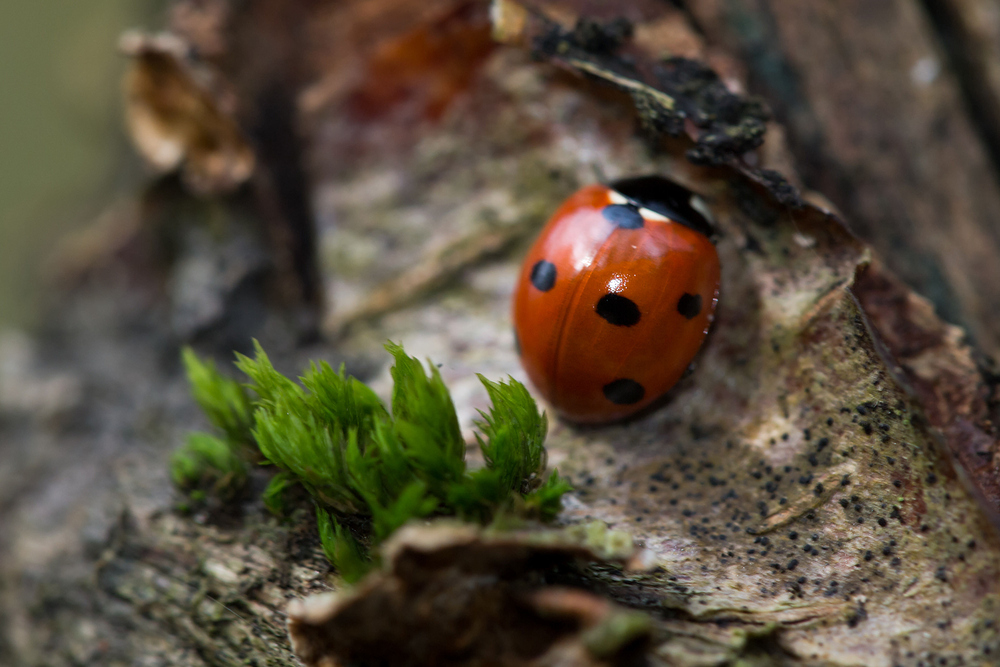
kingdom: Animalia
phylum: Arthropoda
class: Insecta
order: Coleoptera
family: Coccinellidae
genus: Coccinella
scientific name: Coccinella septempunctata
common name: Sevenspotted lady beetle
